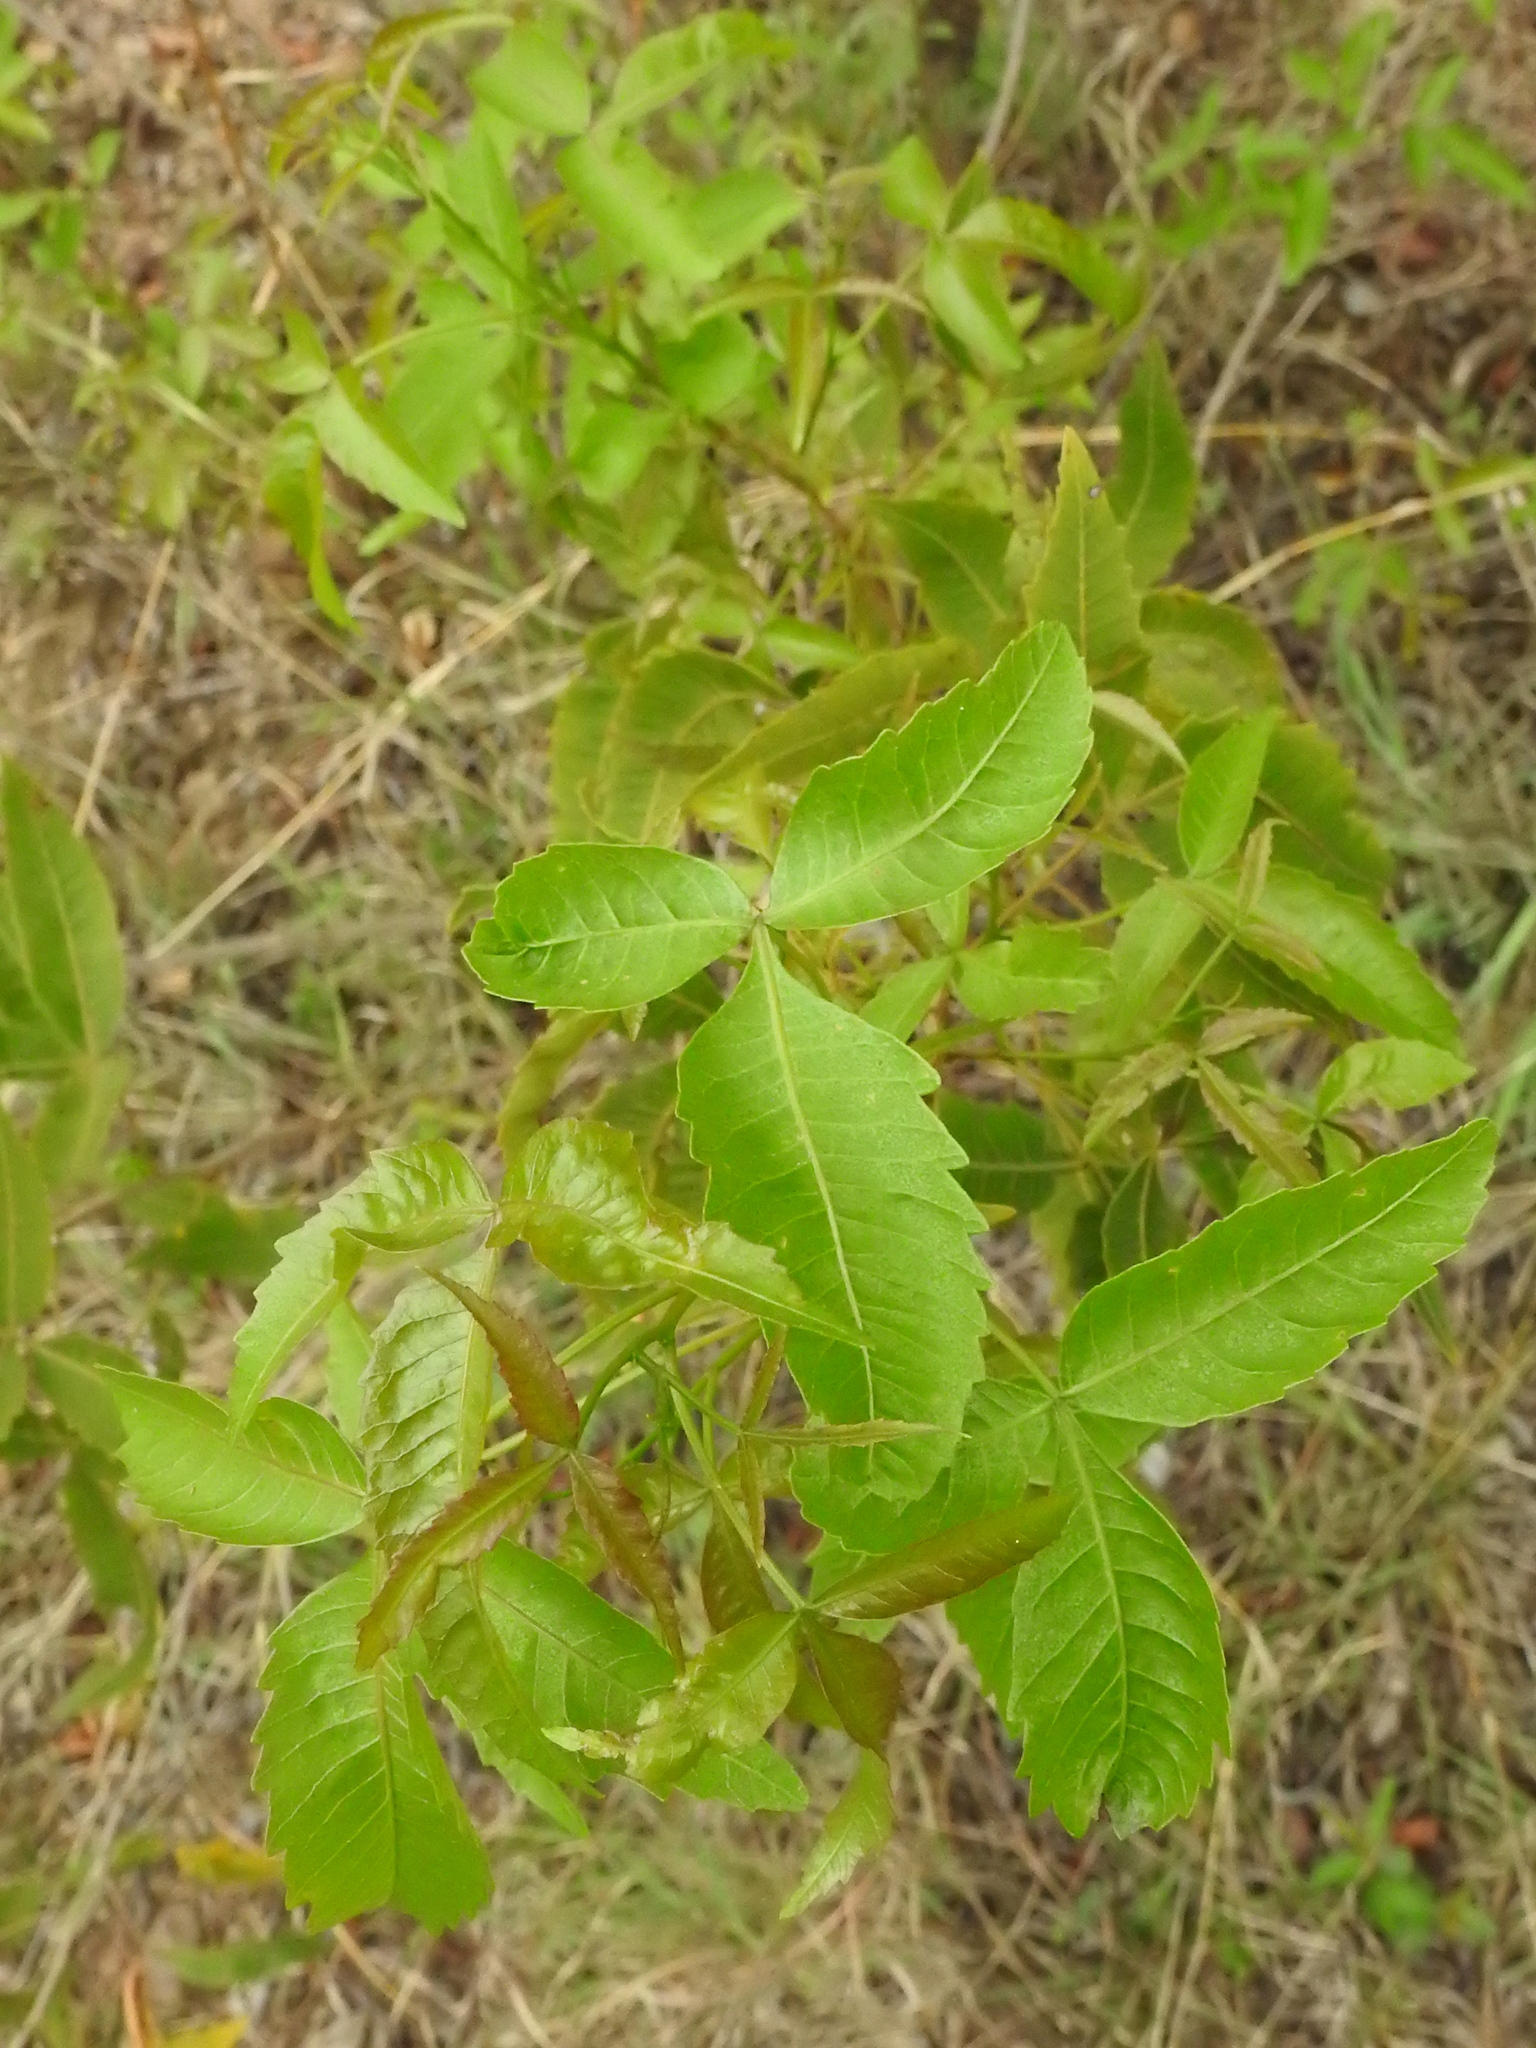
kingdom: Plantae
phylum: Tracheophyta
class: Magnoliopsida
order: Sapindales
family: Anacardiaceae
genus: Searsia
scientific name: Searsia leptodictya
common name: Mountain karee
